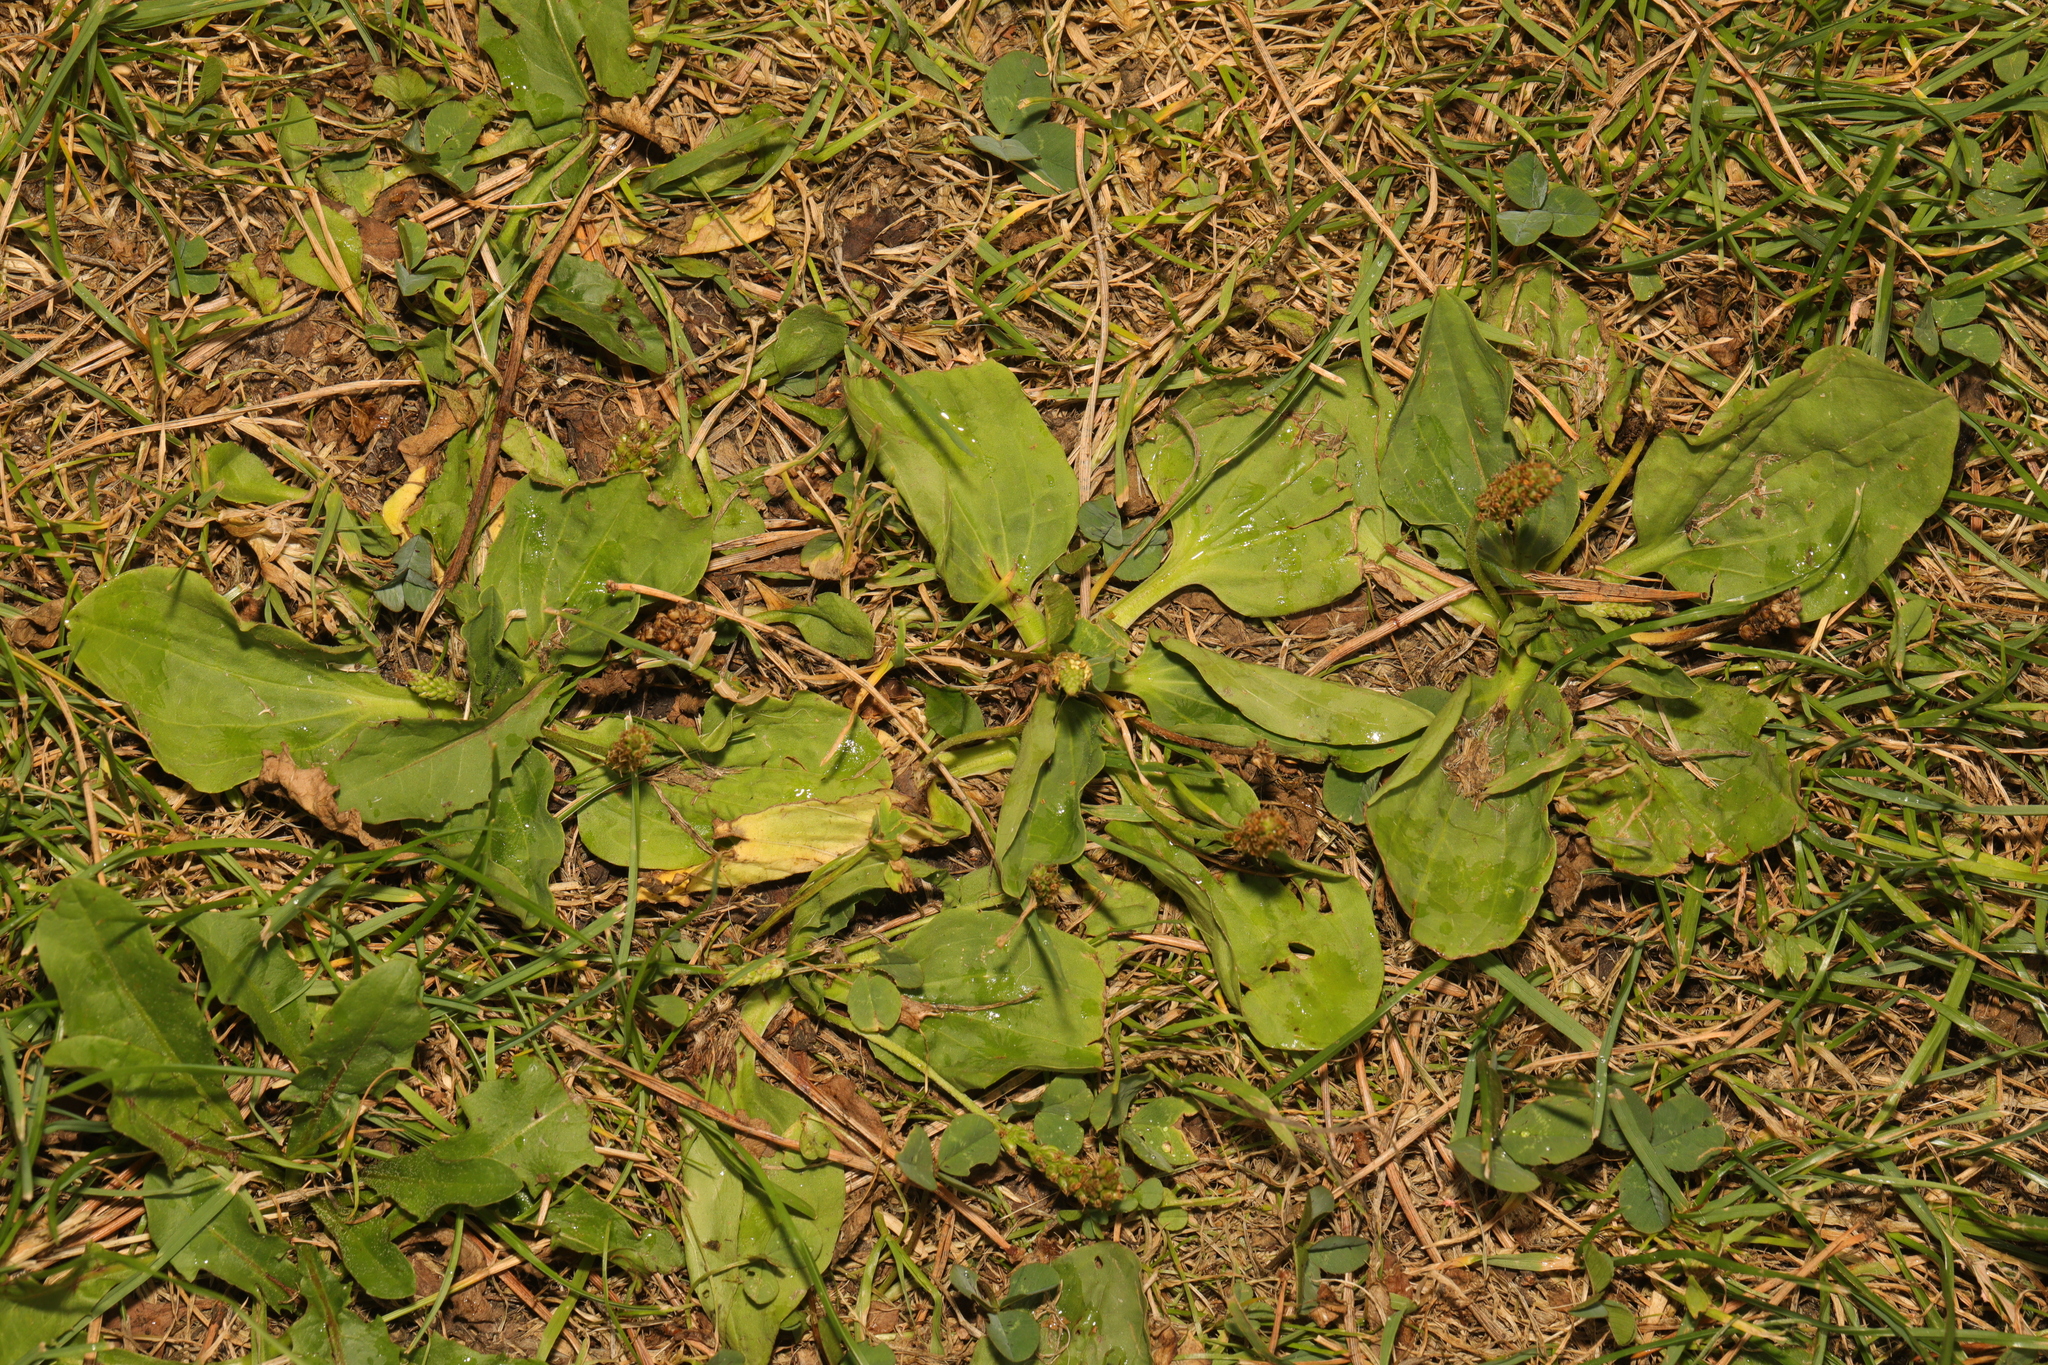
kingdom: Plantae
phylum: Tracheophyta
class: Magnoliopsida
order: Lamiales
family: Plantaginaceae
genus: Plantago
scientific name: Plantago major
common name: Common plantain
